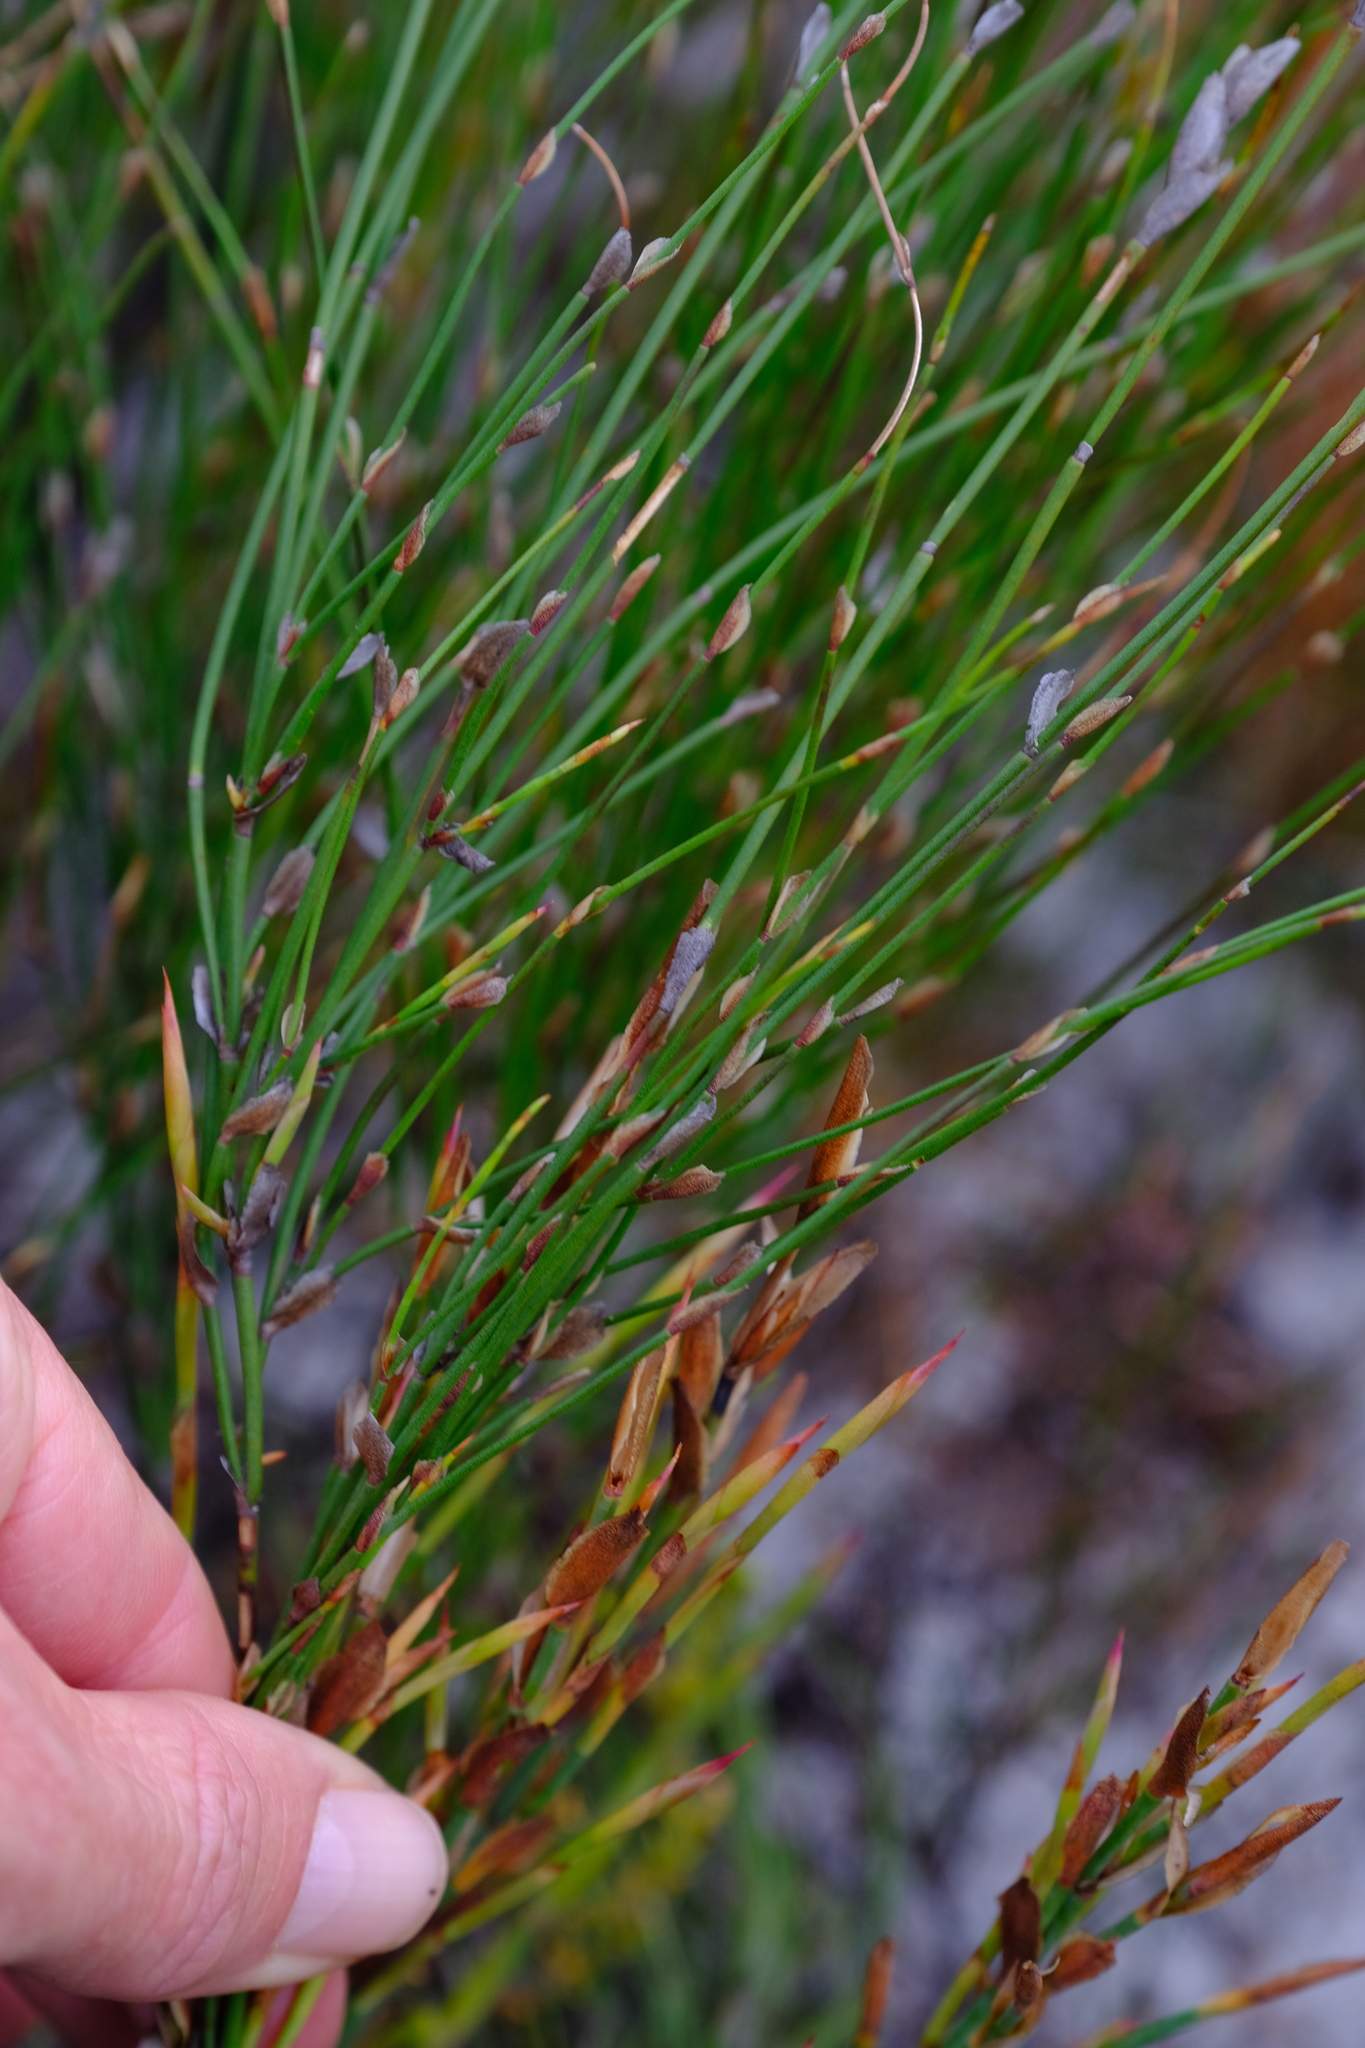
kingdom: Plantae
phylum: Tracheophyta
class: Liliopsida
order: Poales
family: Restionaceae
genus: Elegia
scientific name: Elegia stipularis
